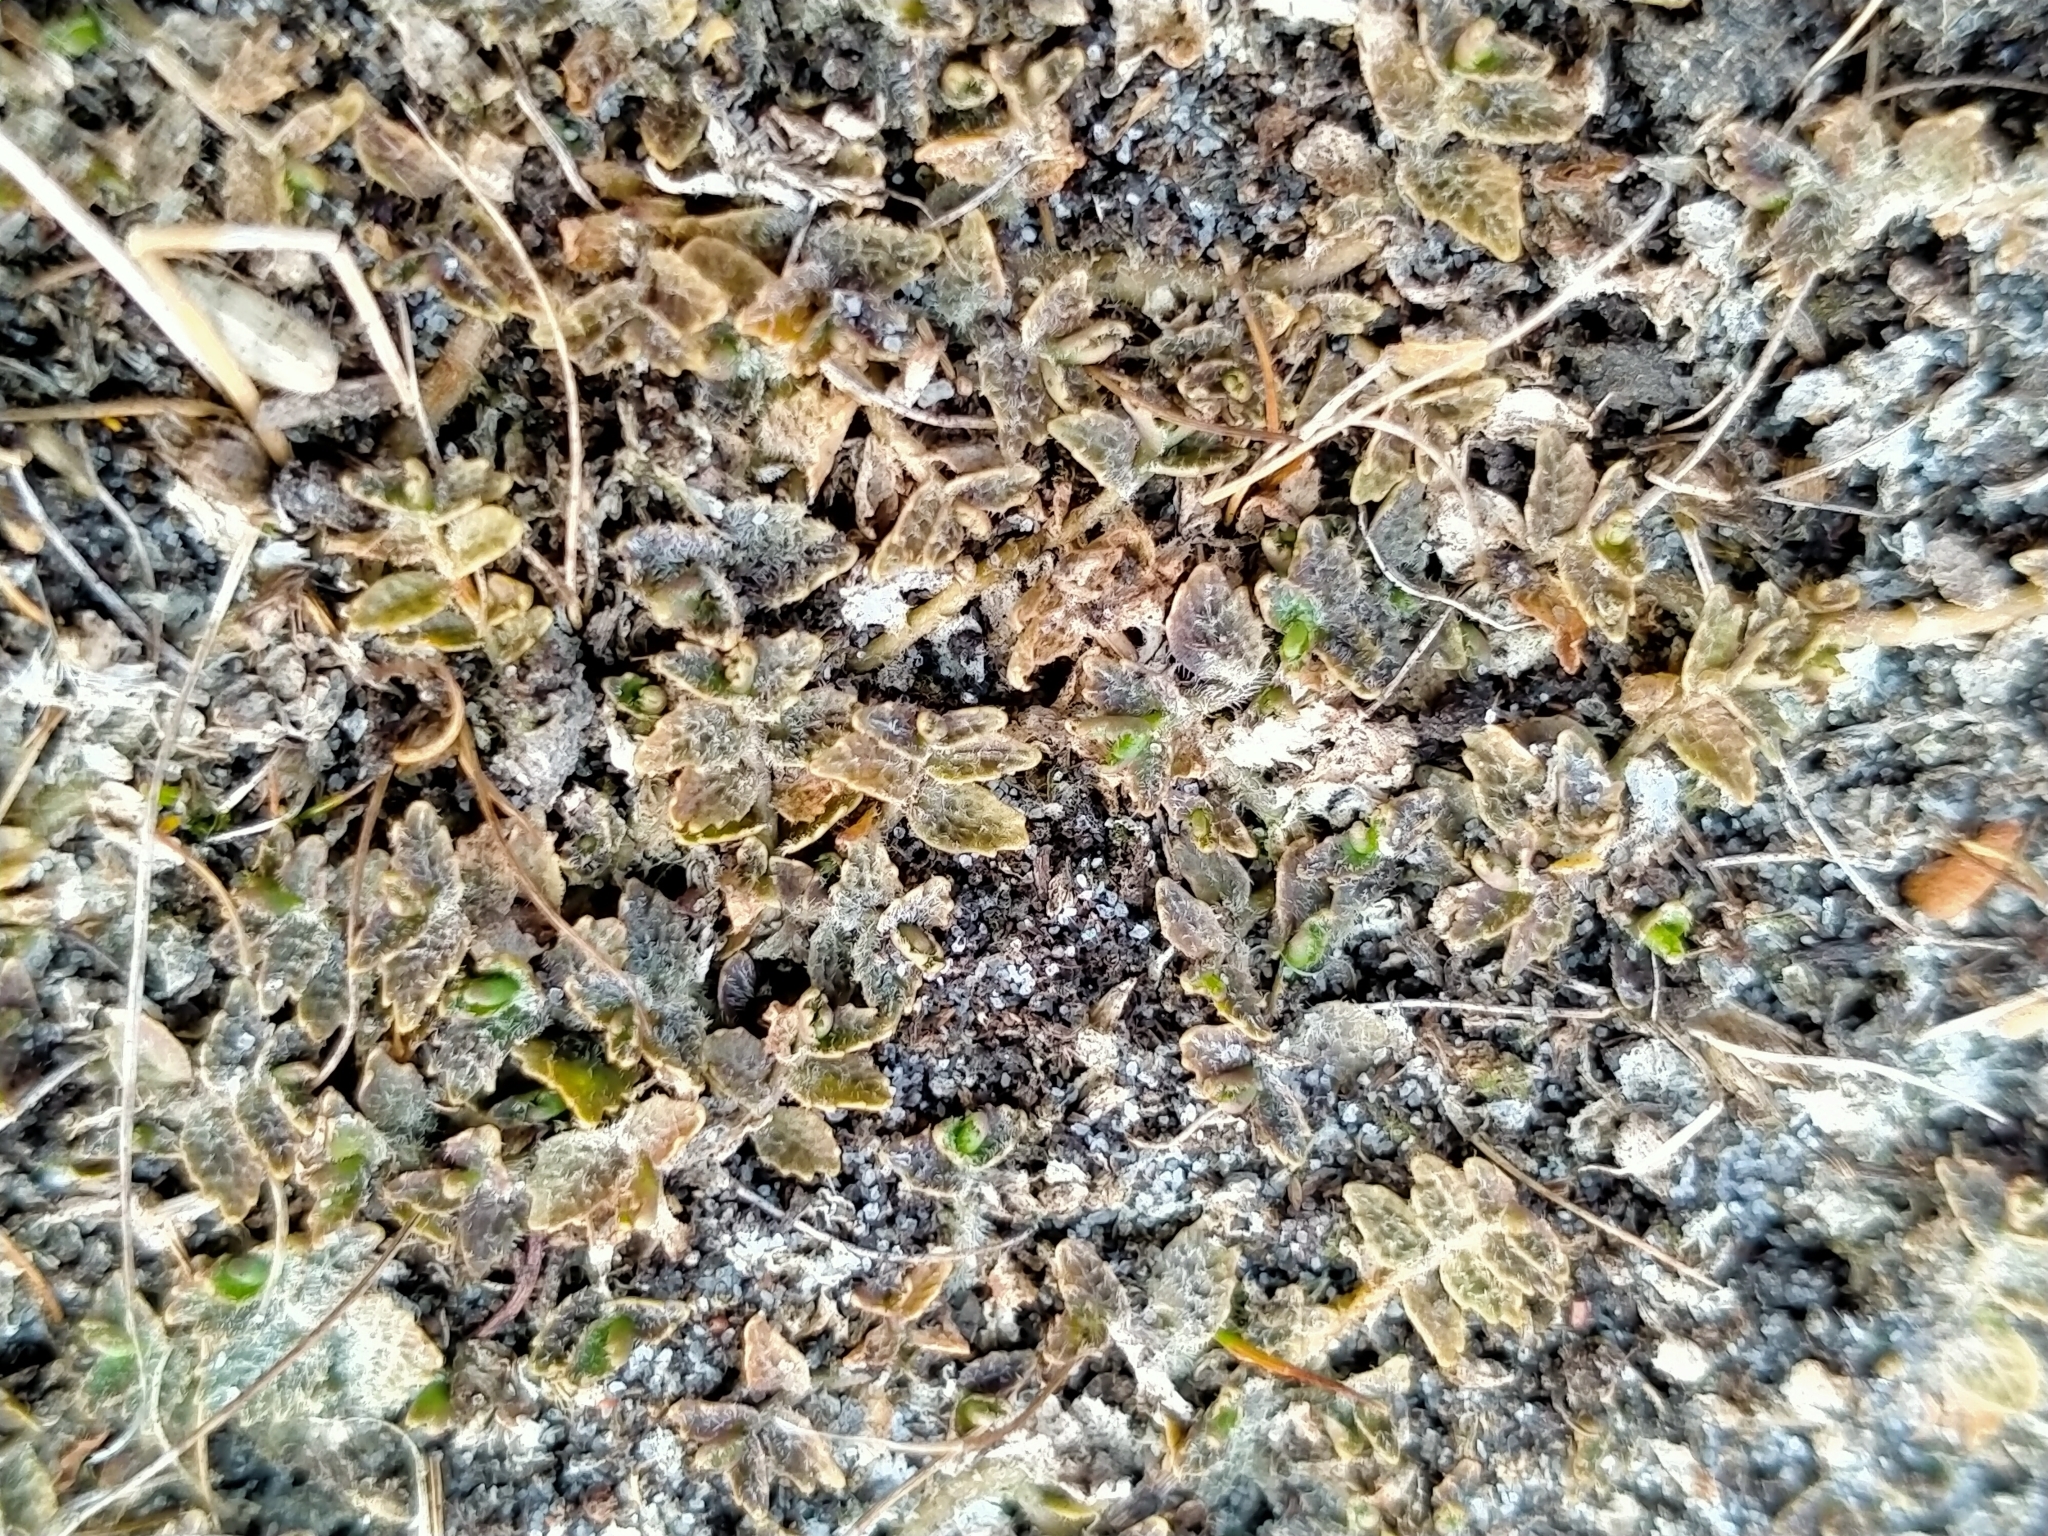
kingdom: Plantae
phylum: Tracheophyta
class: Magnoliopsida
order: Asterales
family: Campanulaceae
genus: Lobelia
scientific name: Lobelia perpusilla
